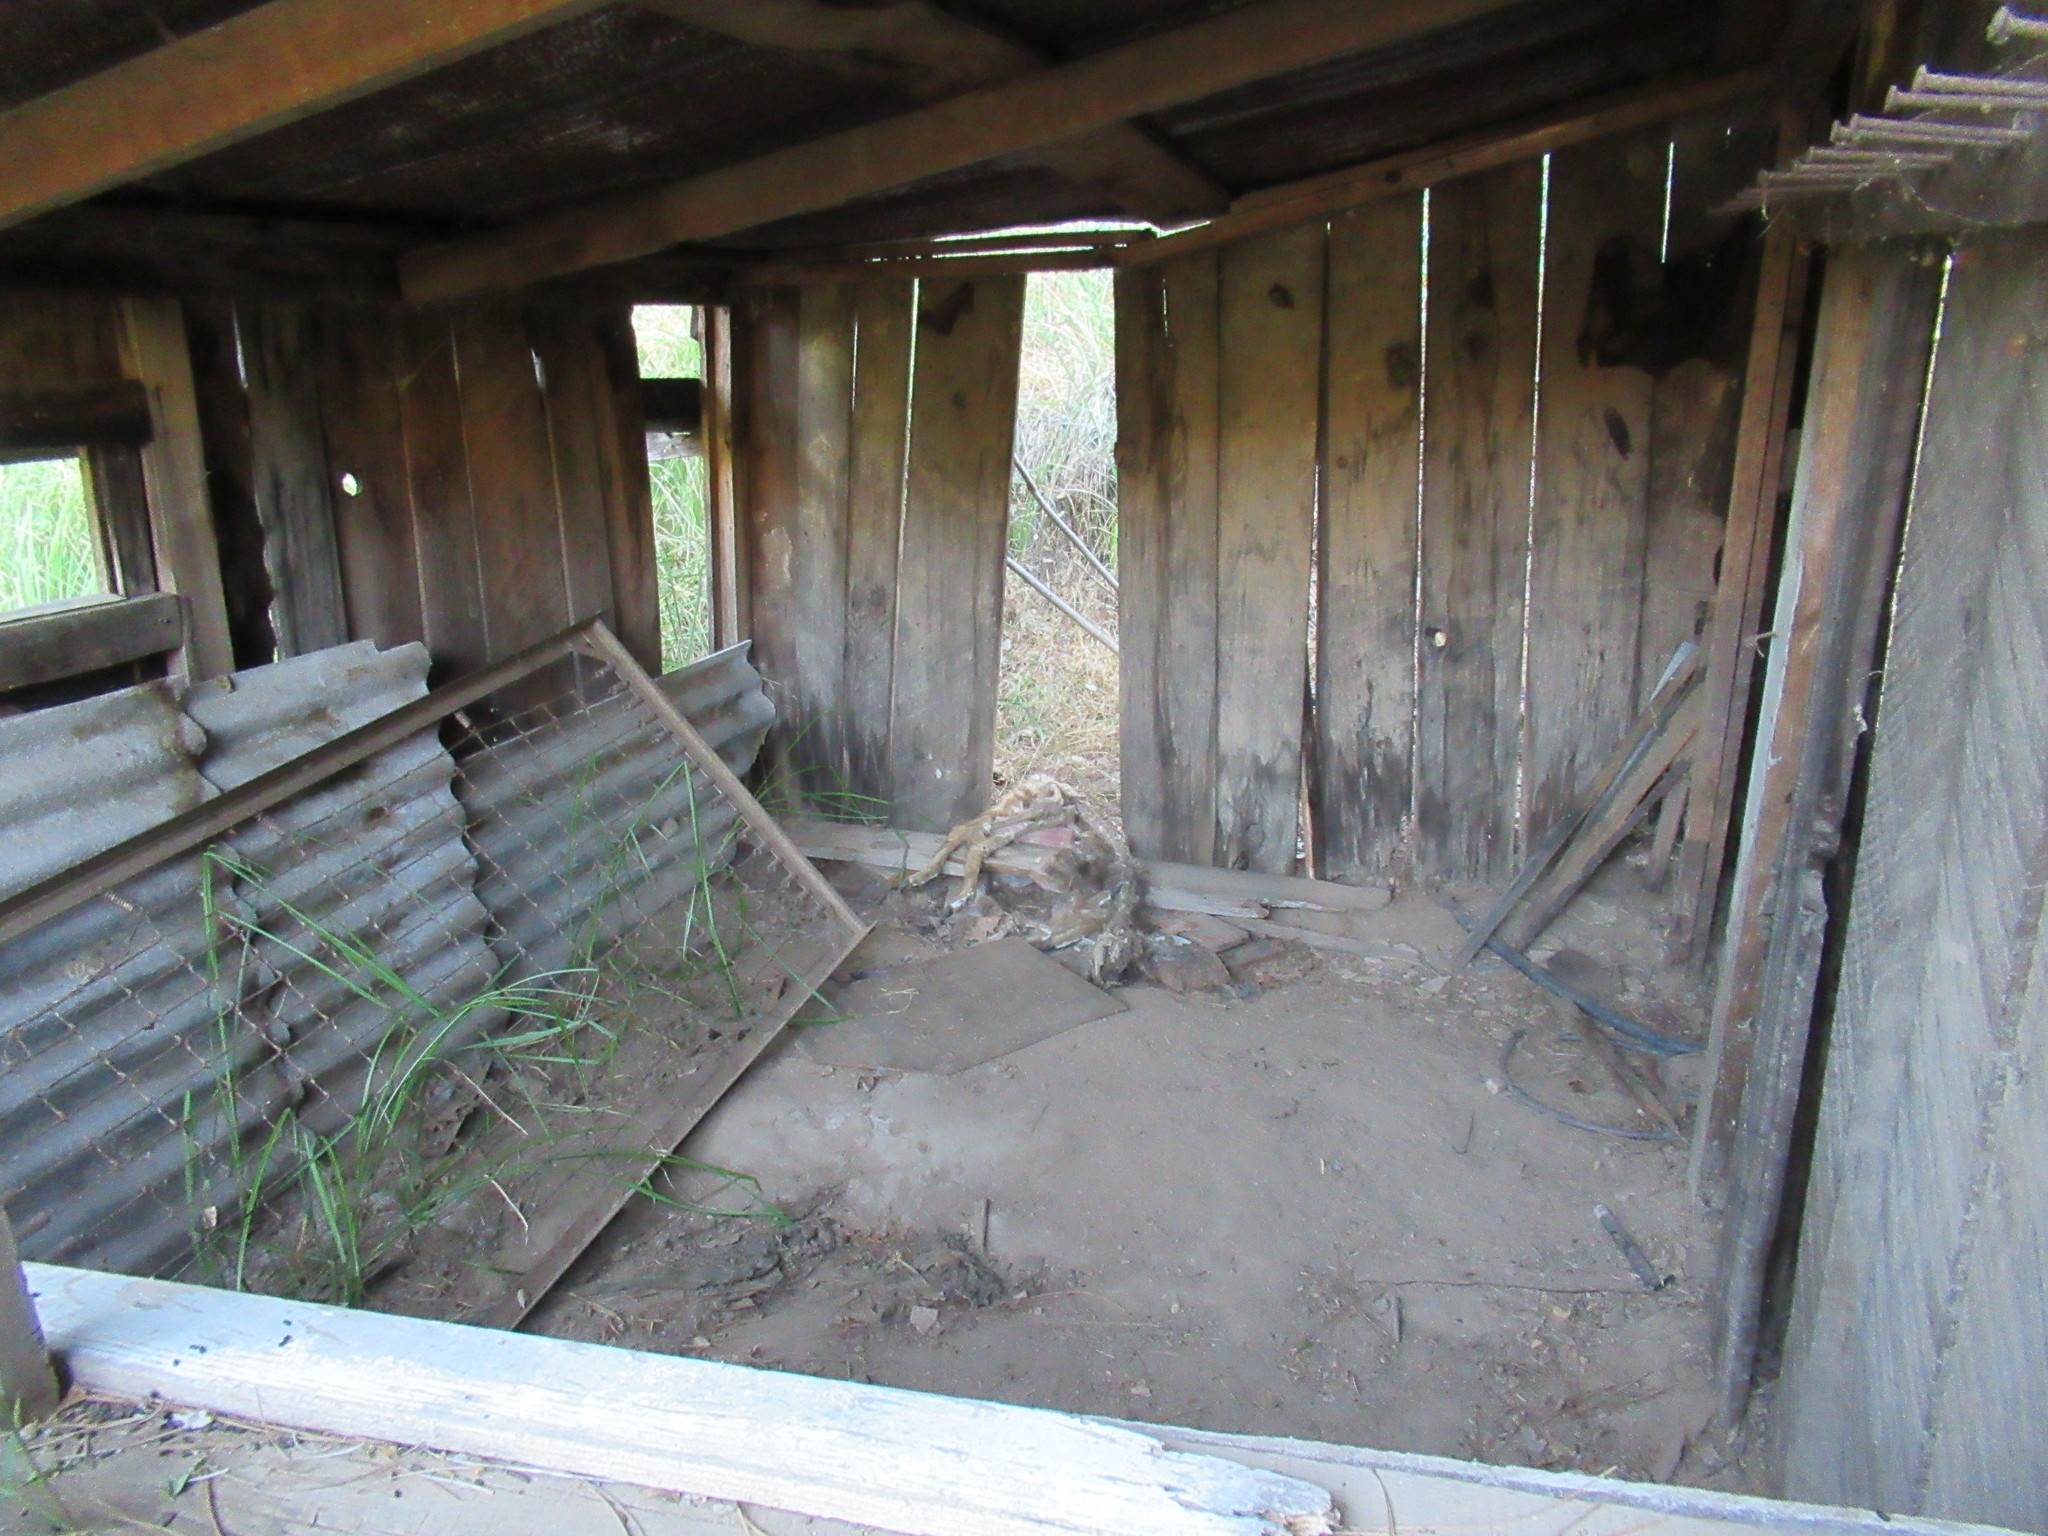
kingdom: Animalia
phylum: Chordata
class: Mammalia
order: Artiodactyla
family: Cervidae
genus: Odocoileus
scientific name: Odocoileus hemionus
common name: Mule deer
